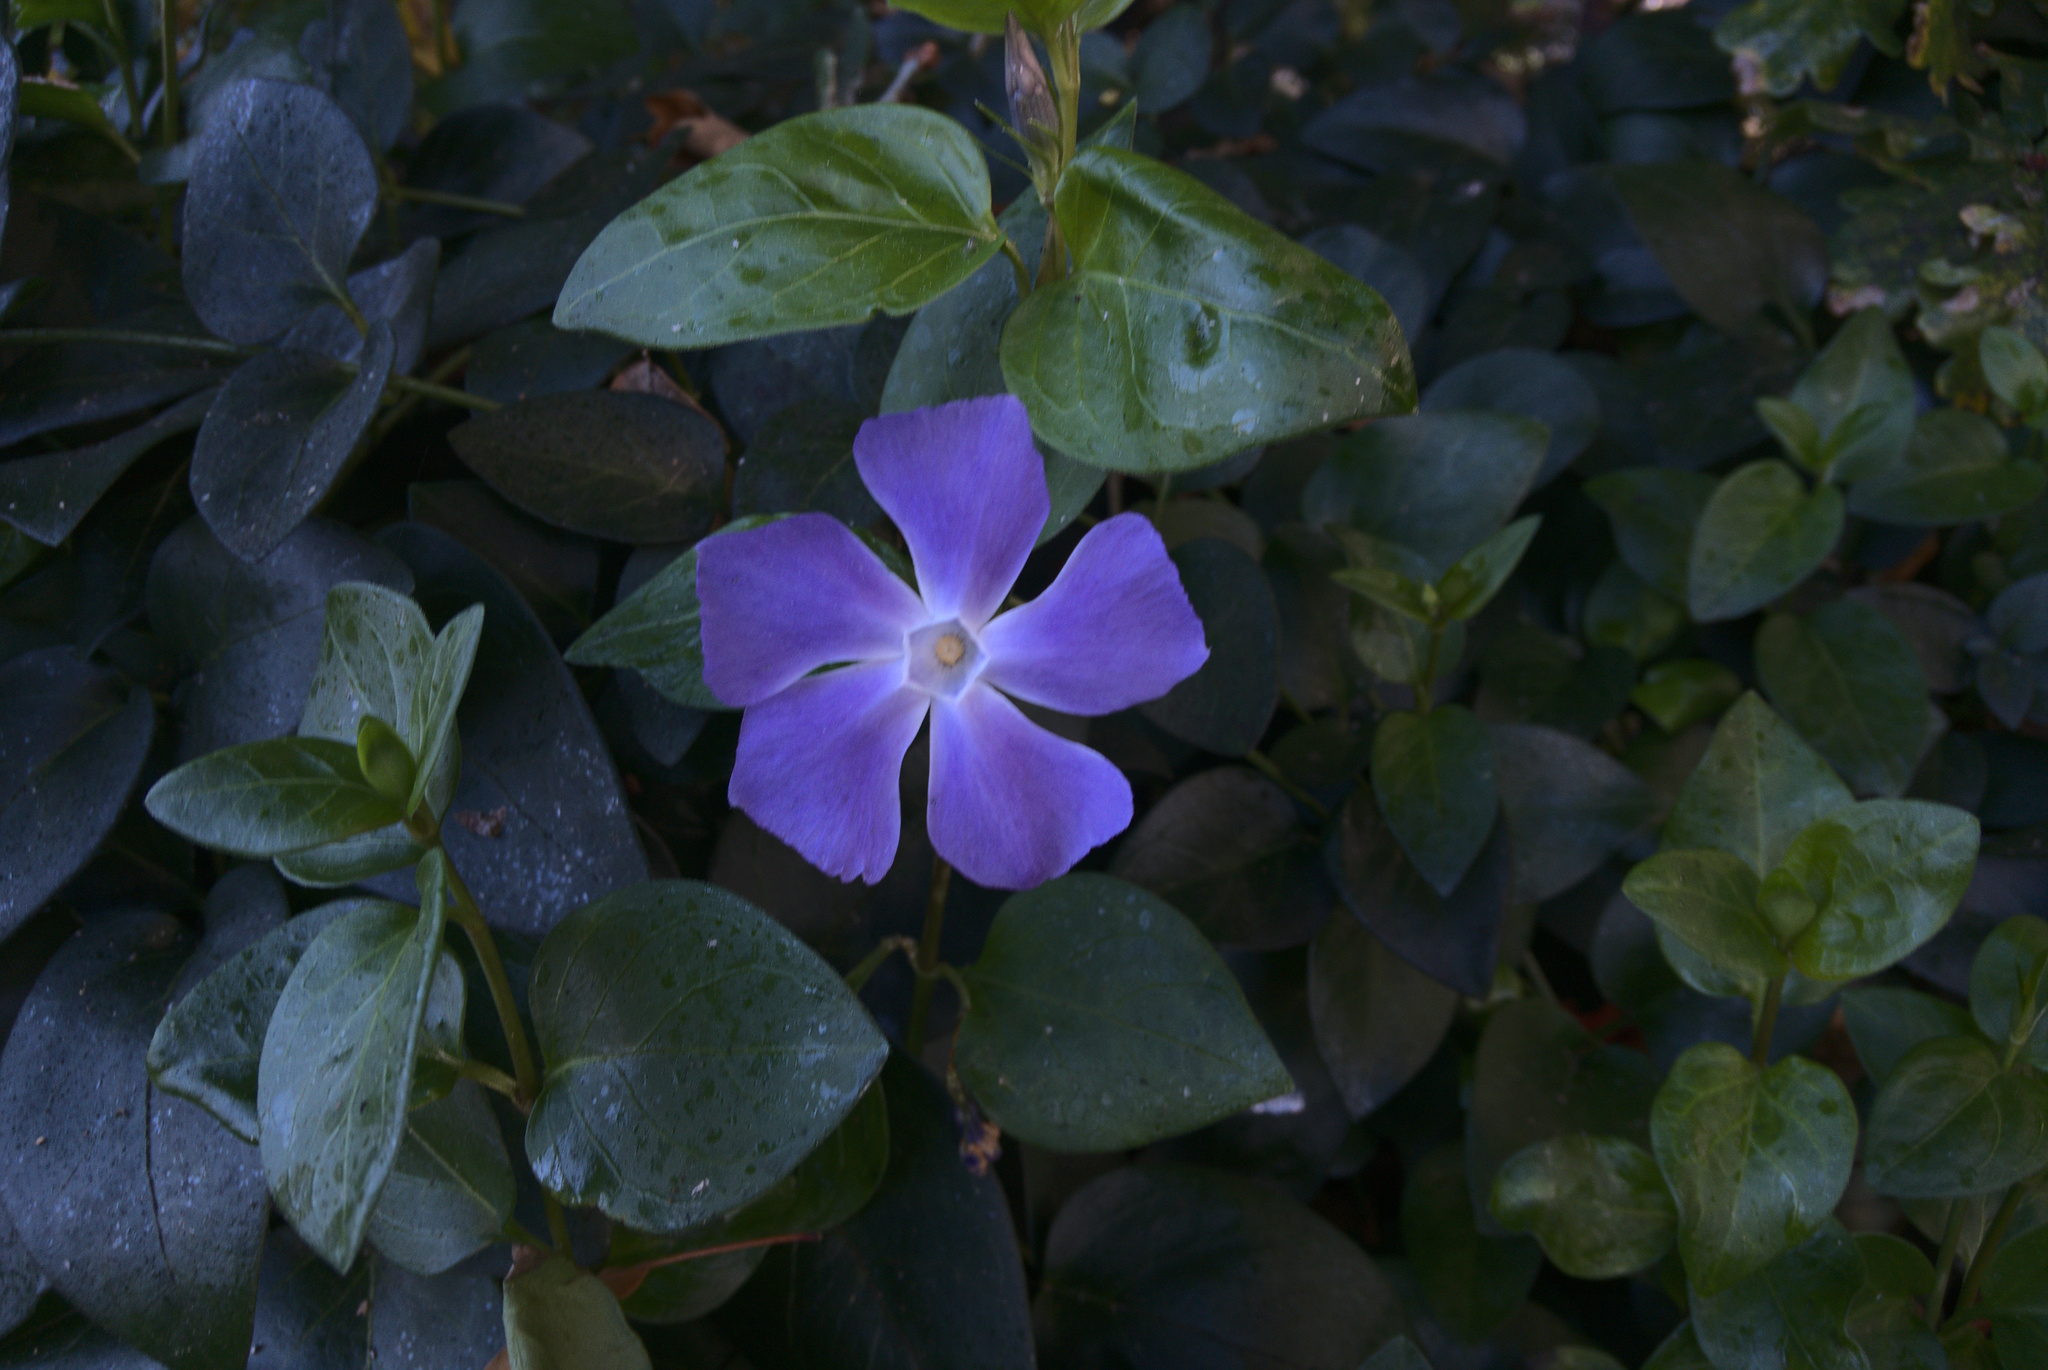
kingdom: Plantae
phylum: Tracheophyta
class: Magnoliopsida
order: Gentianales
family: Apocynaceae
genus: Vinca
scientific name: Vinca major
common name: Greater periwinkle
